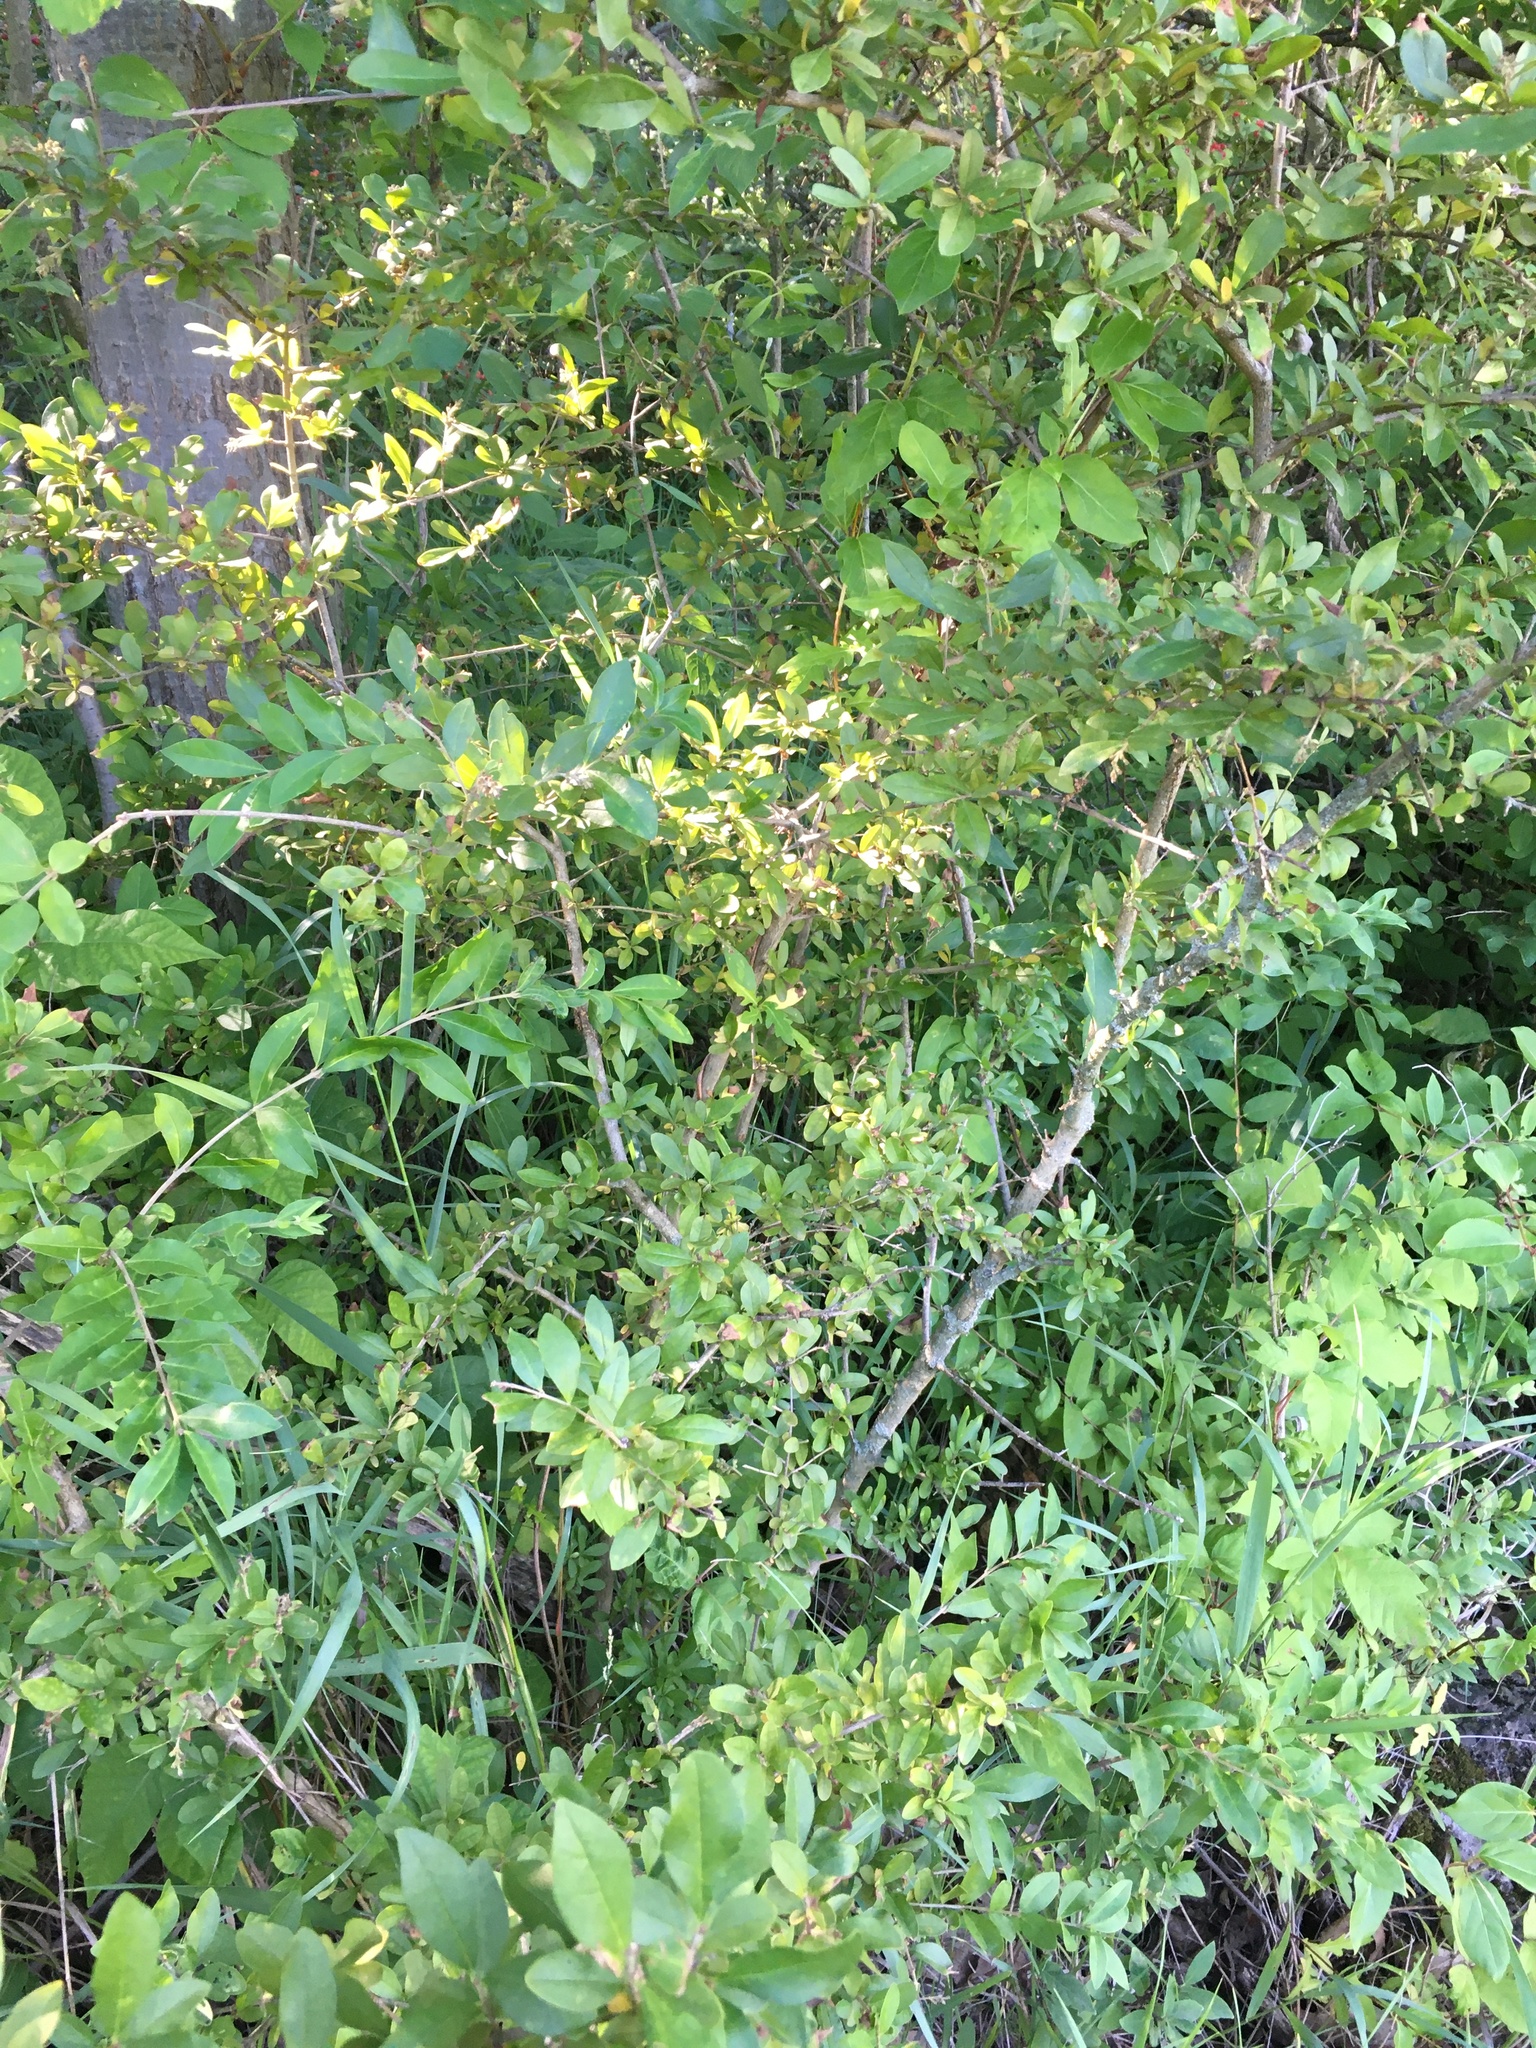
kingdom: Plantae
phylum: Tracheophyta
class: Magnoliopsida
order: Lamiales
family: Oleaceae
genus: Ligustrum
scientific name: Ligustrum obtusifolium
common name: Border privet
